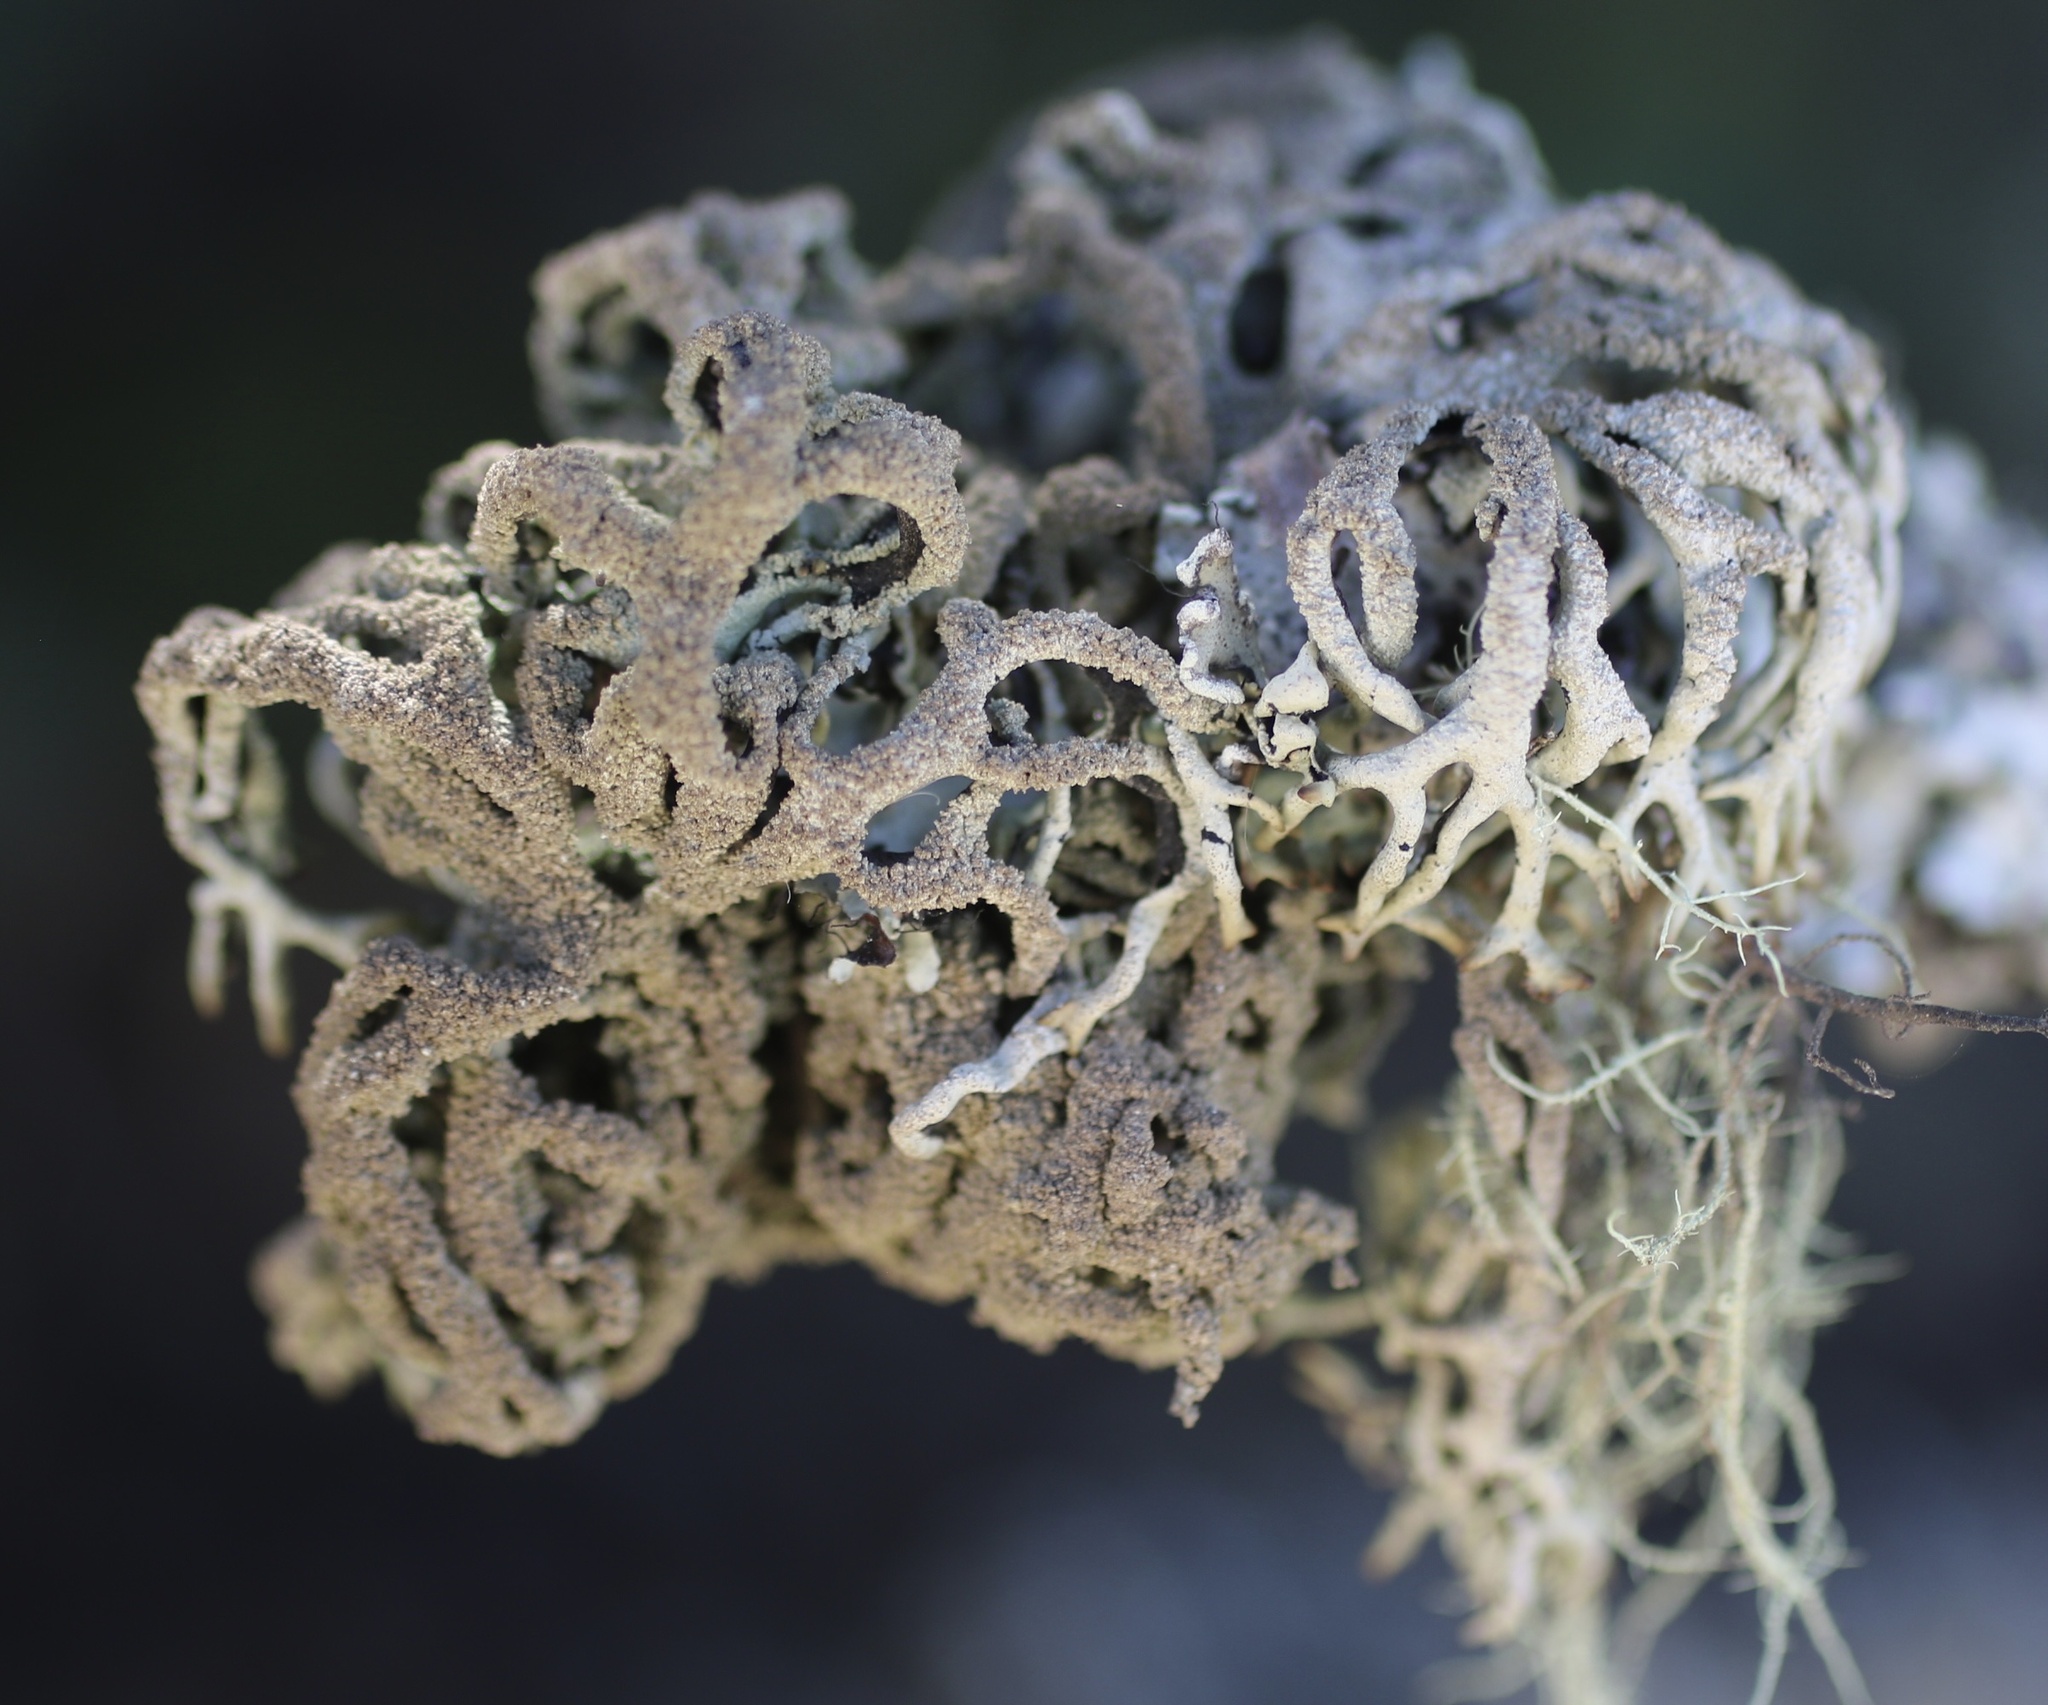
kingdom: Fungi
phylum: Ascomycota
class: Lecanoromycetes
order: Lecanorales
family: Parmeliaceae
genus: Hypogymnia
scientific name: Hypogymnia schizidiata
